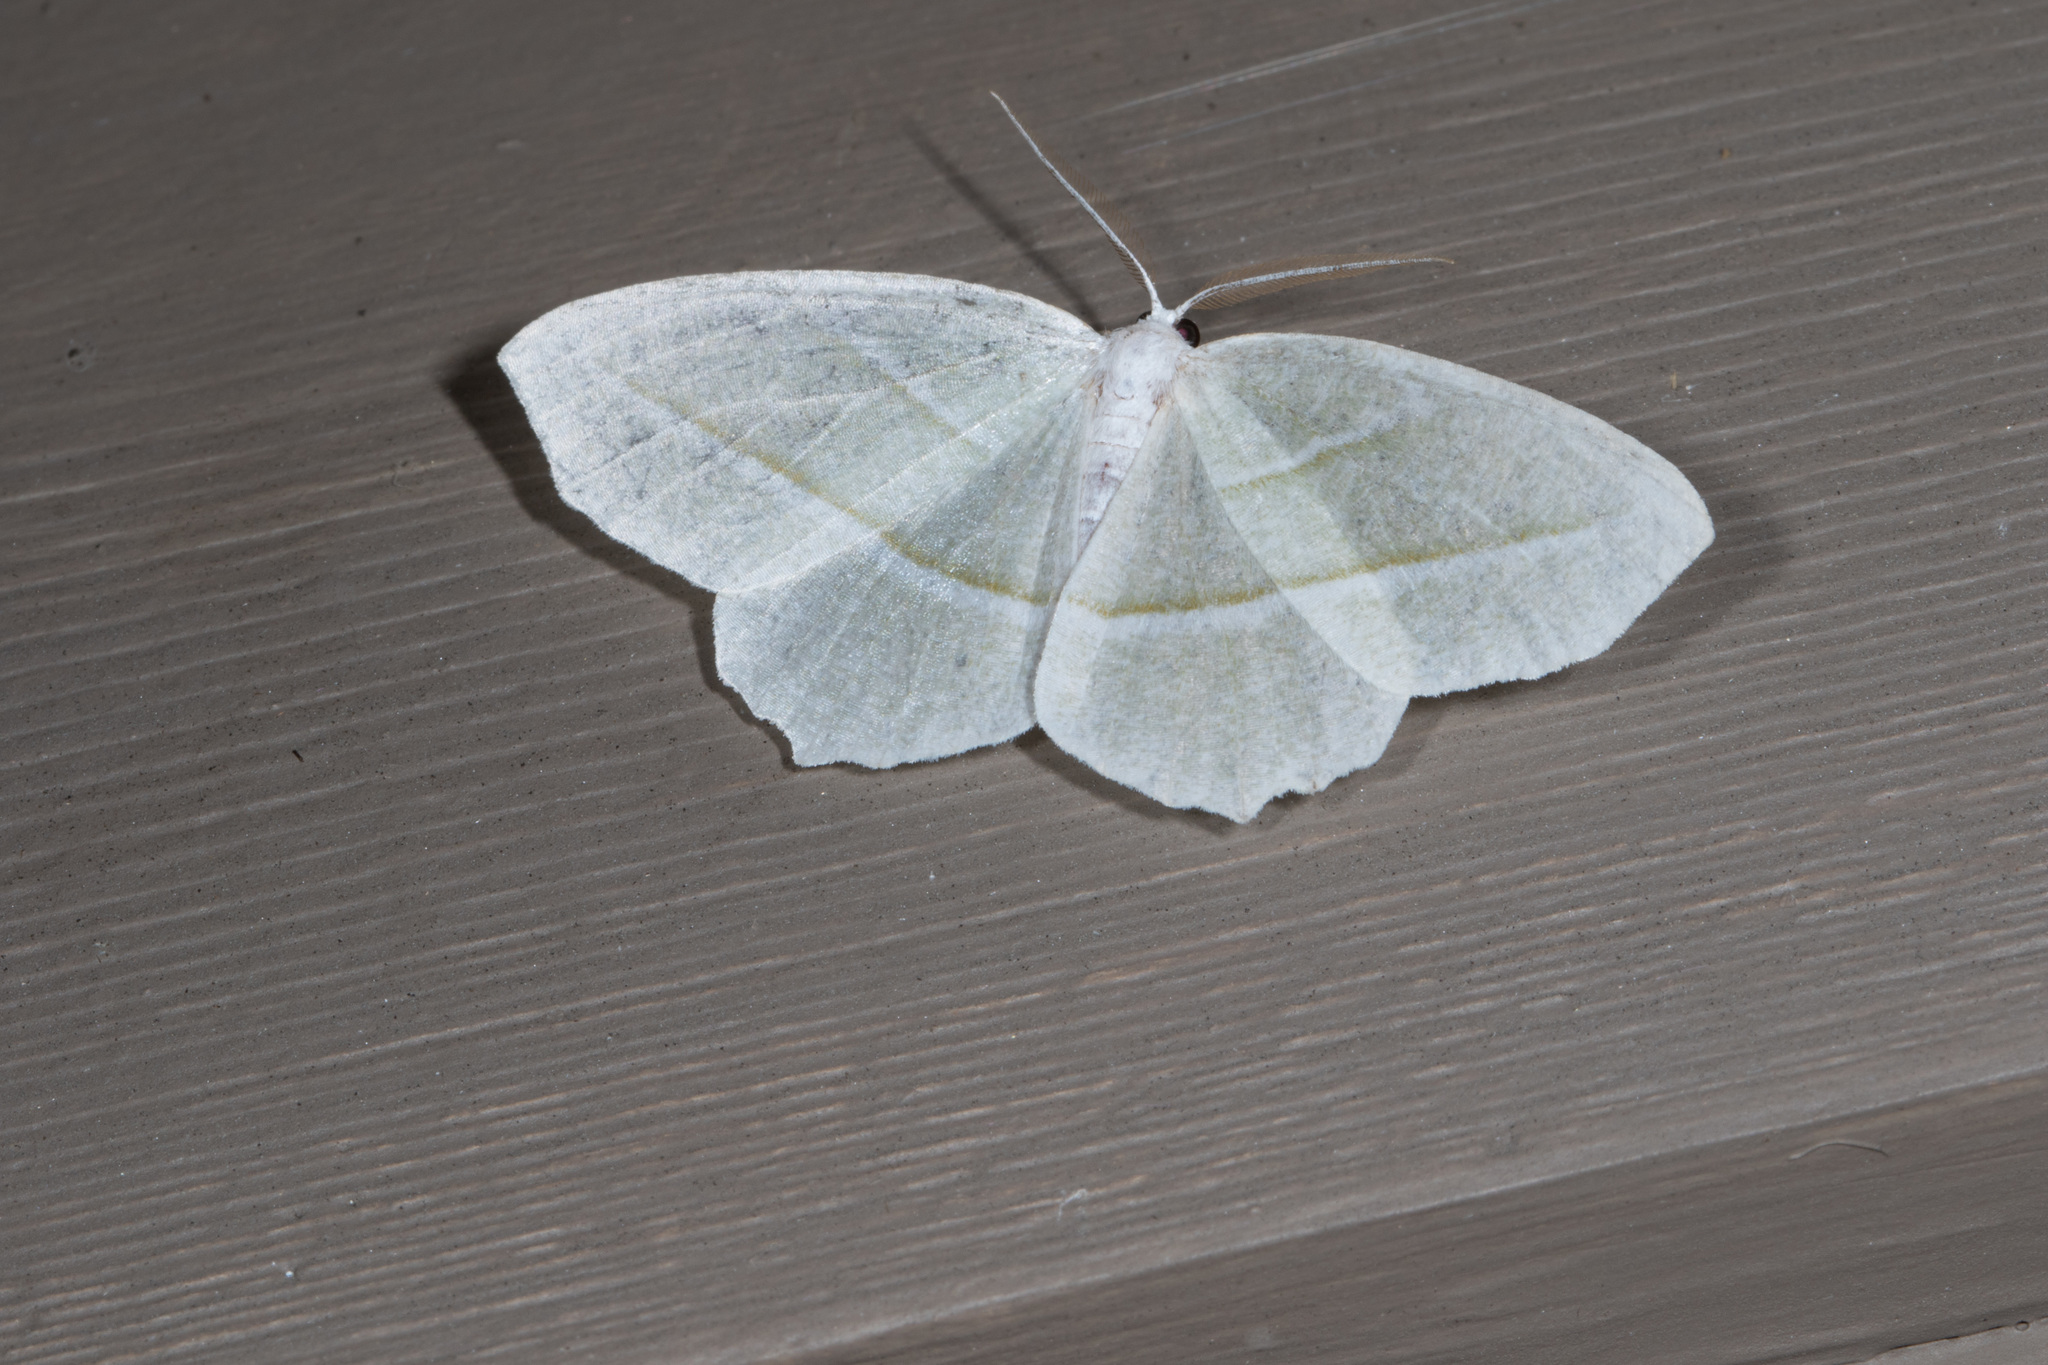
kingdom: Animalia
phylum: Arthropoda
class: Insecta
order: Lepidoptera
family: Geometridae
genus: Campaea
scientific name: Campaea perlata
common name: Fringed looper
